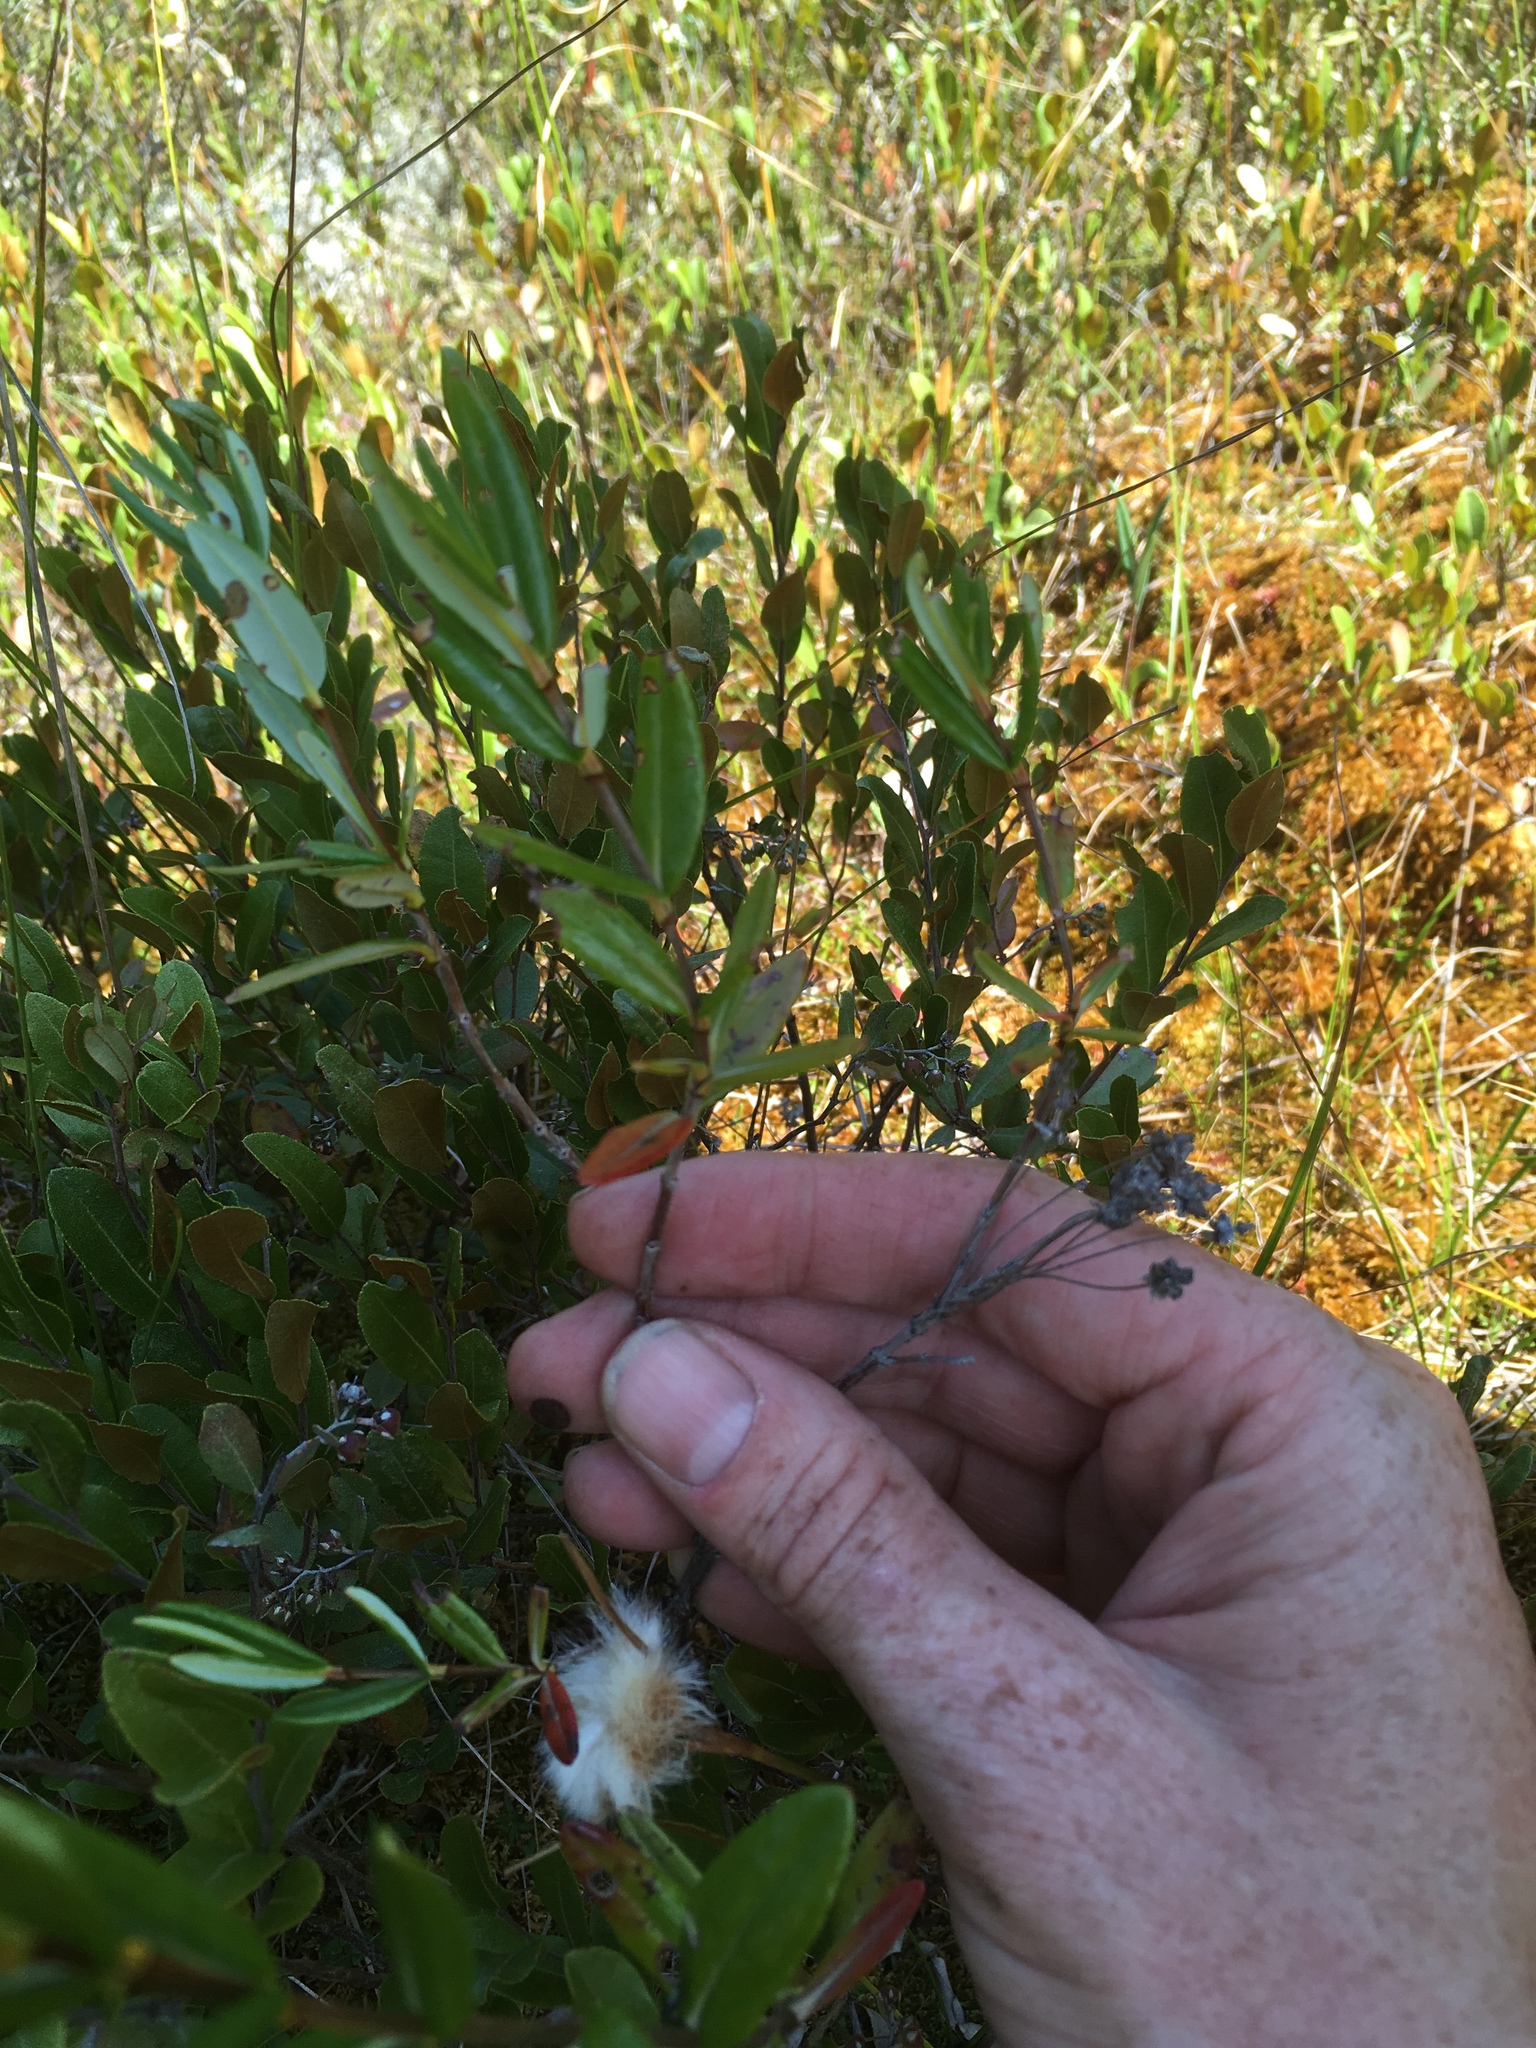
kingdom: Plantae
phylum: Tracheophyta
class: Magnoliopsida
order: Ericales
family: Ericaceae
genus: Kalmia
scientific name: Kalmia polifolia
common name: Bog-laurel
